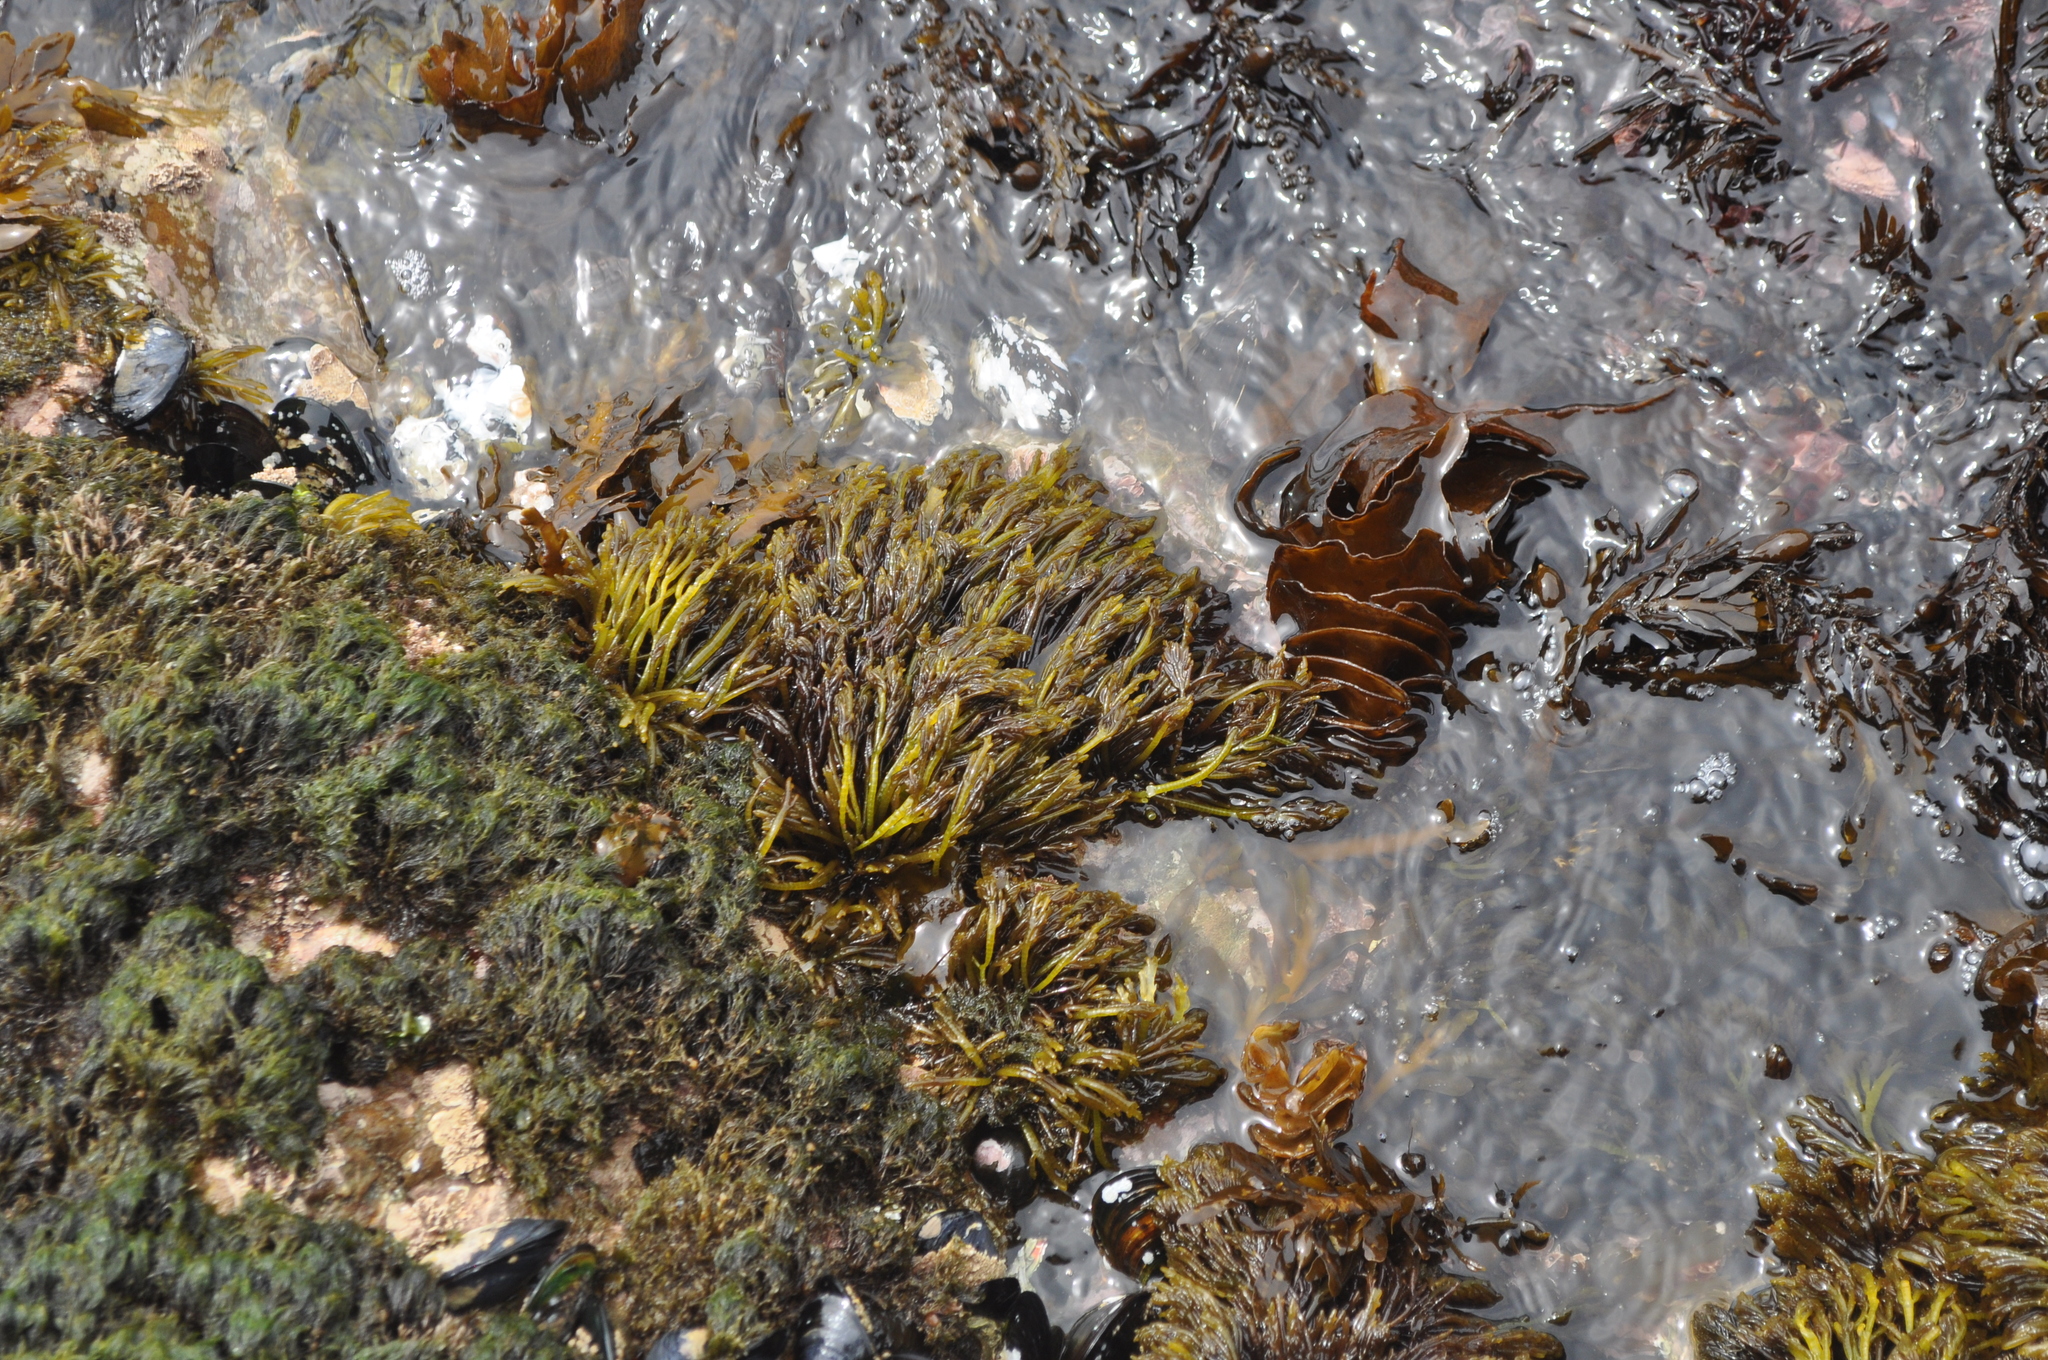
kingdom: Plantae
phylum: Rhodophyta
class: Florideophyceae
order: Rhodymeniales
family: Champiaceae
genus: Champia
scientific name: Champia novae-zelandiae
